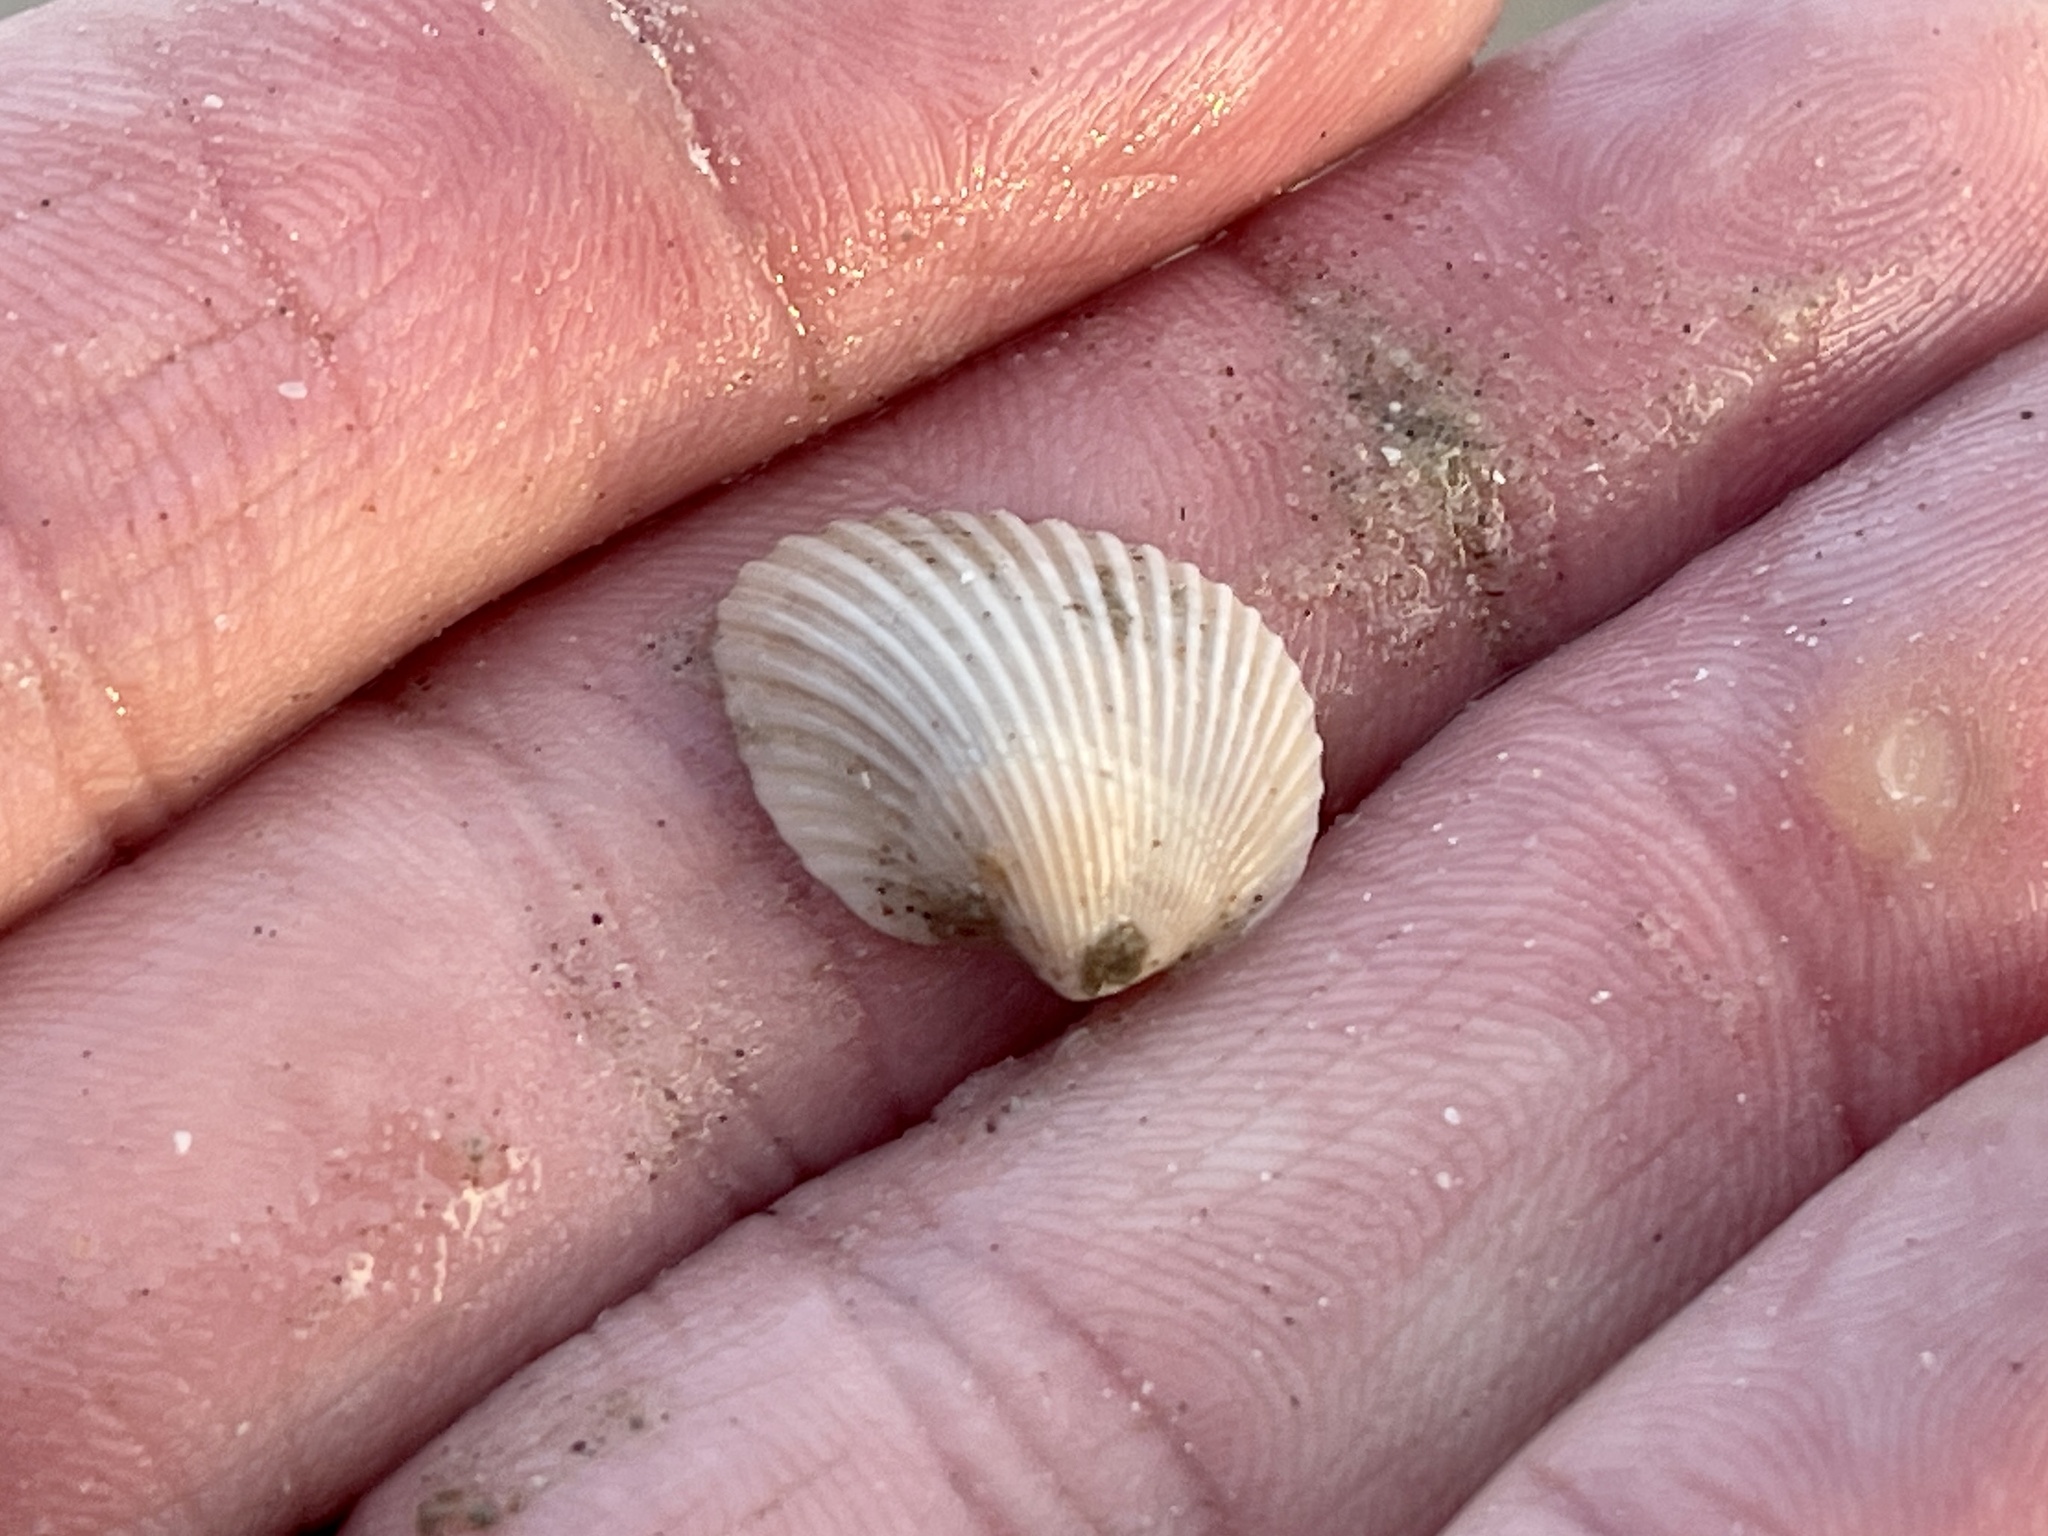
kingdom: Animalia
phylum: Mollusca
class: Bivalvia
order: Arcida
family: Noetiidae
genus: Noetia
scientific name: Noetia ponderosa
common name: Ponderous ark
